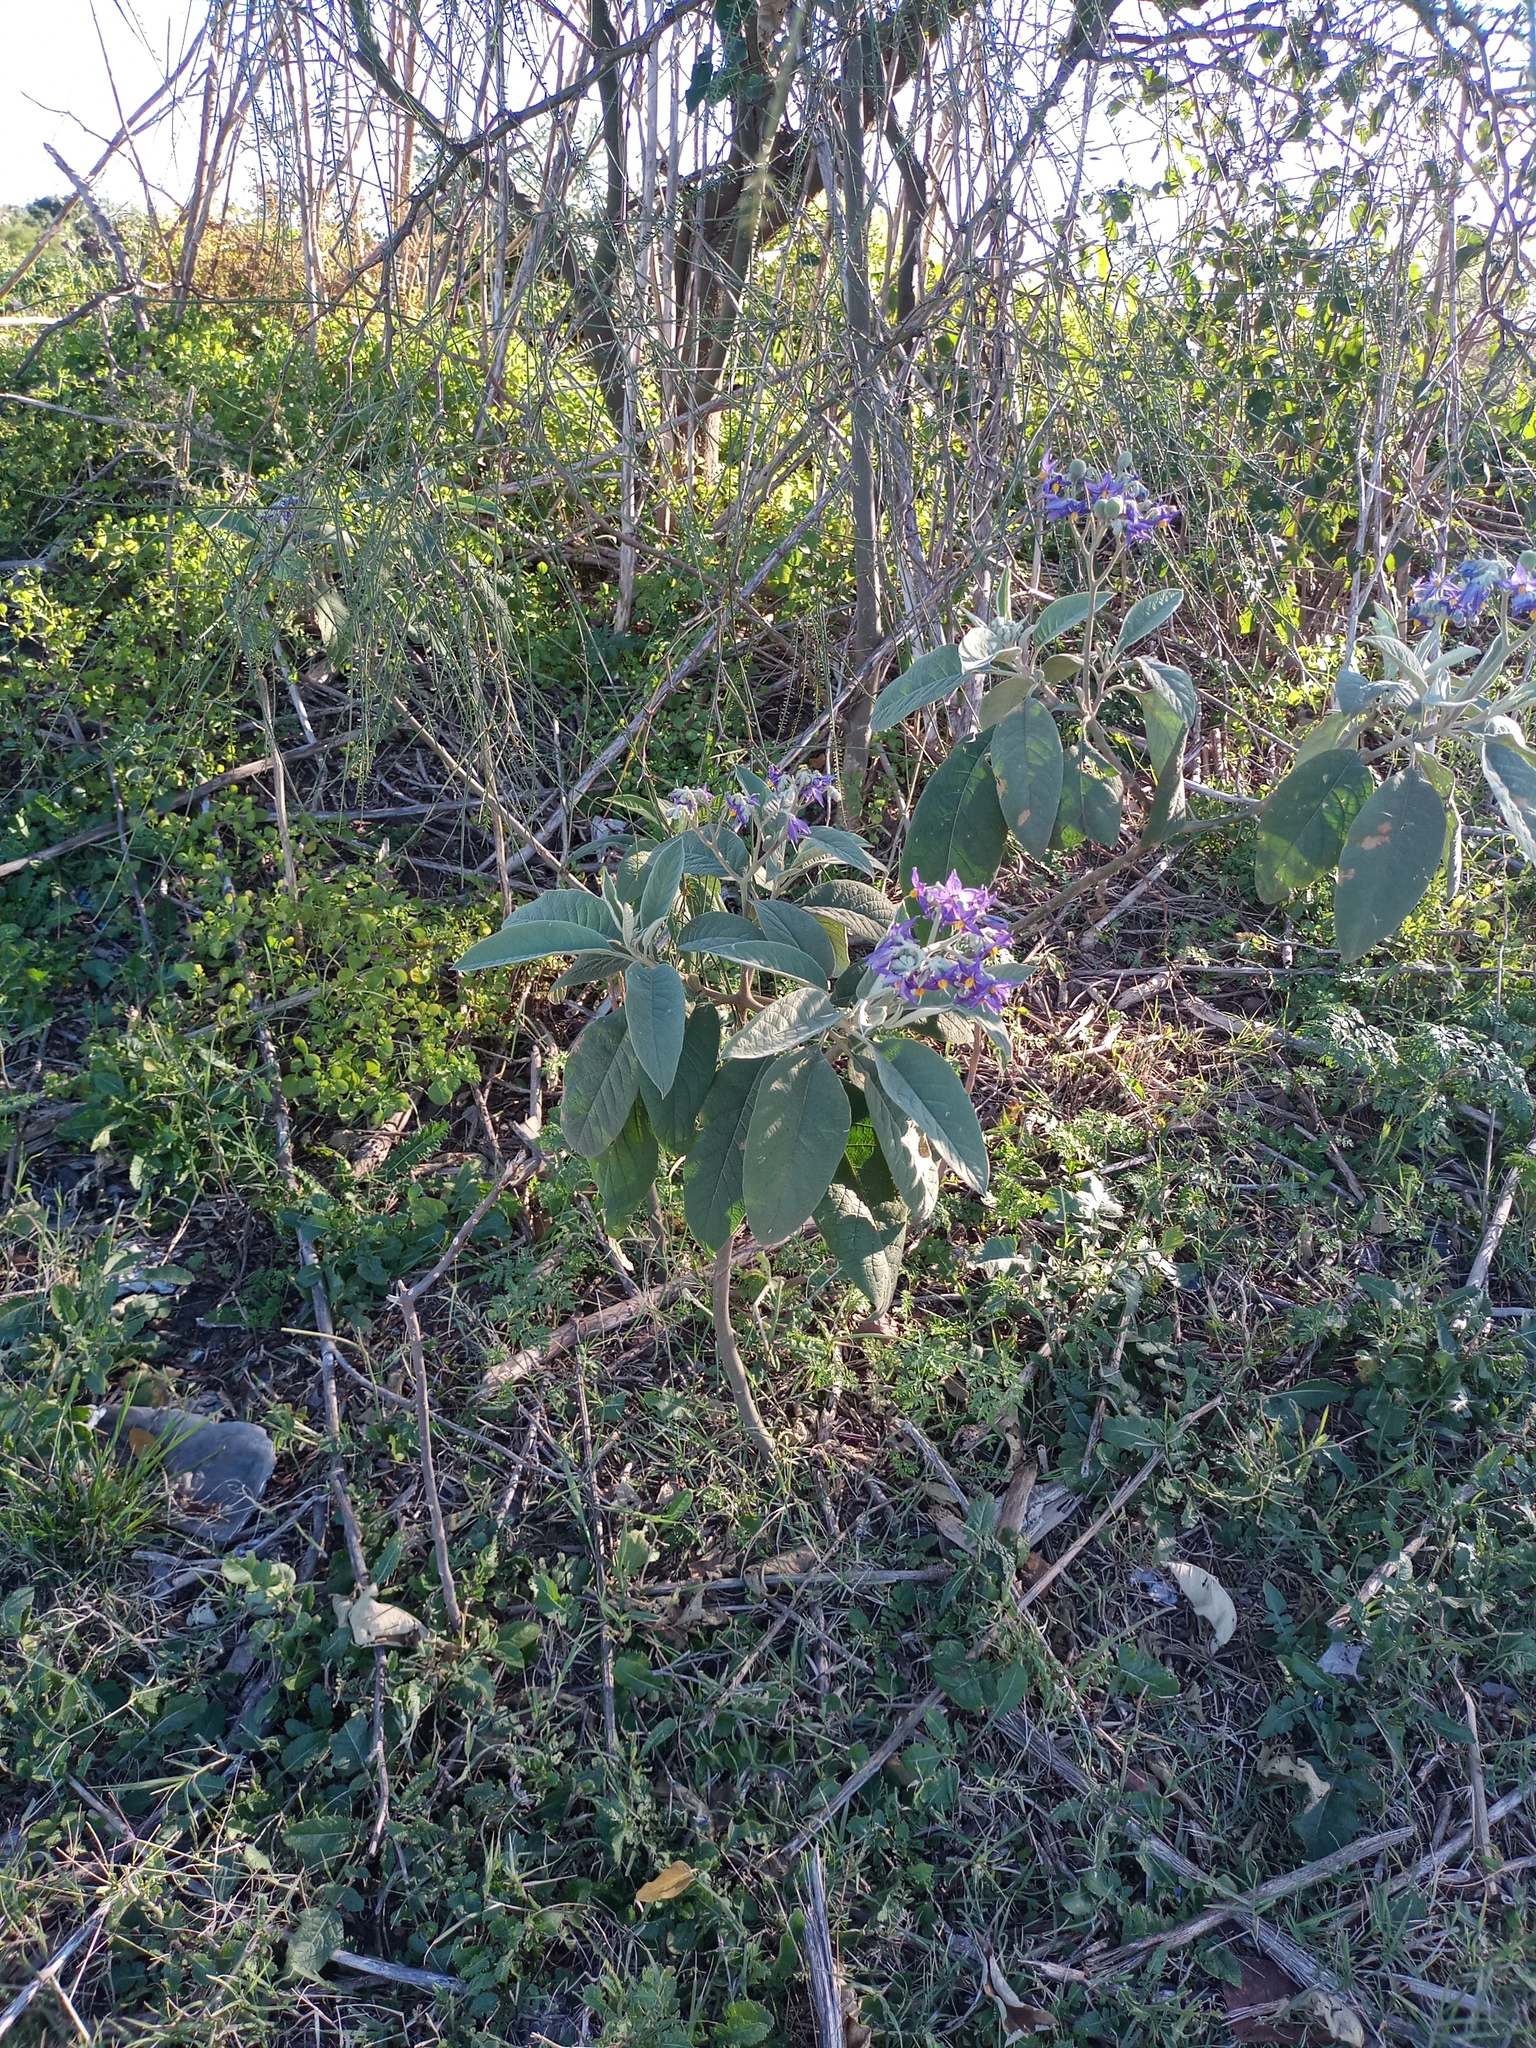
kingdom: Plantae
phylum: Tracheophyta
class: Magnoliopsida
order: Solanales
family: Solanaceae
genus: Solanum
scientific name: Solanum granulosoleprosum
